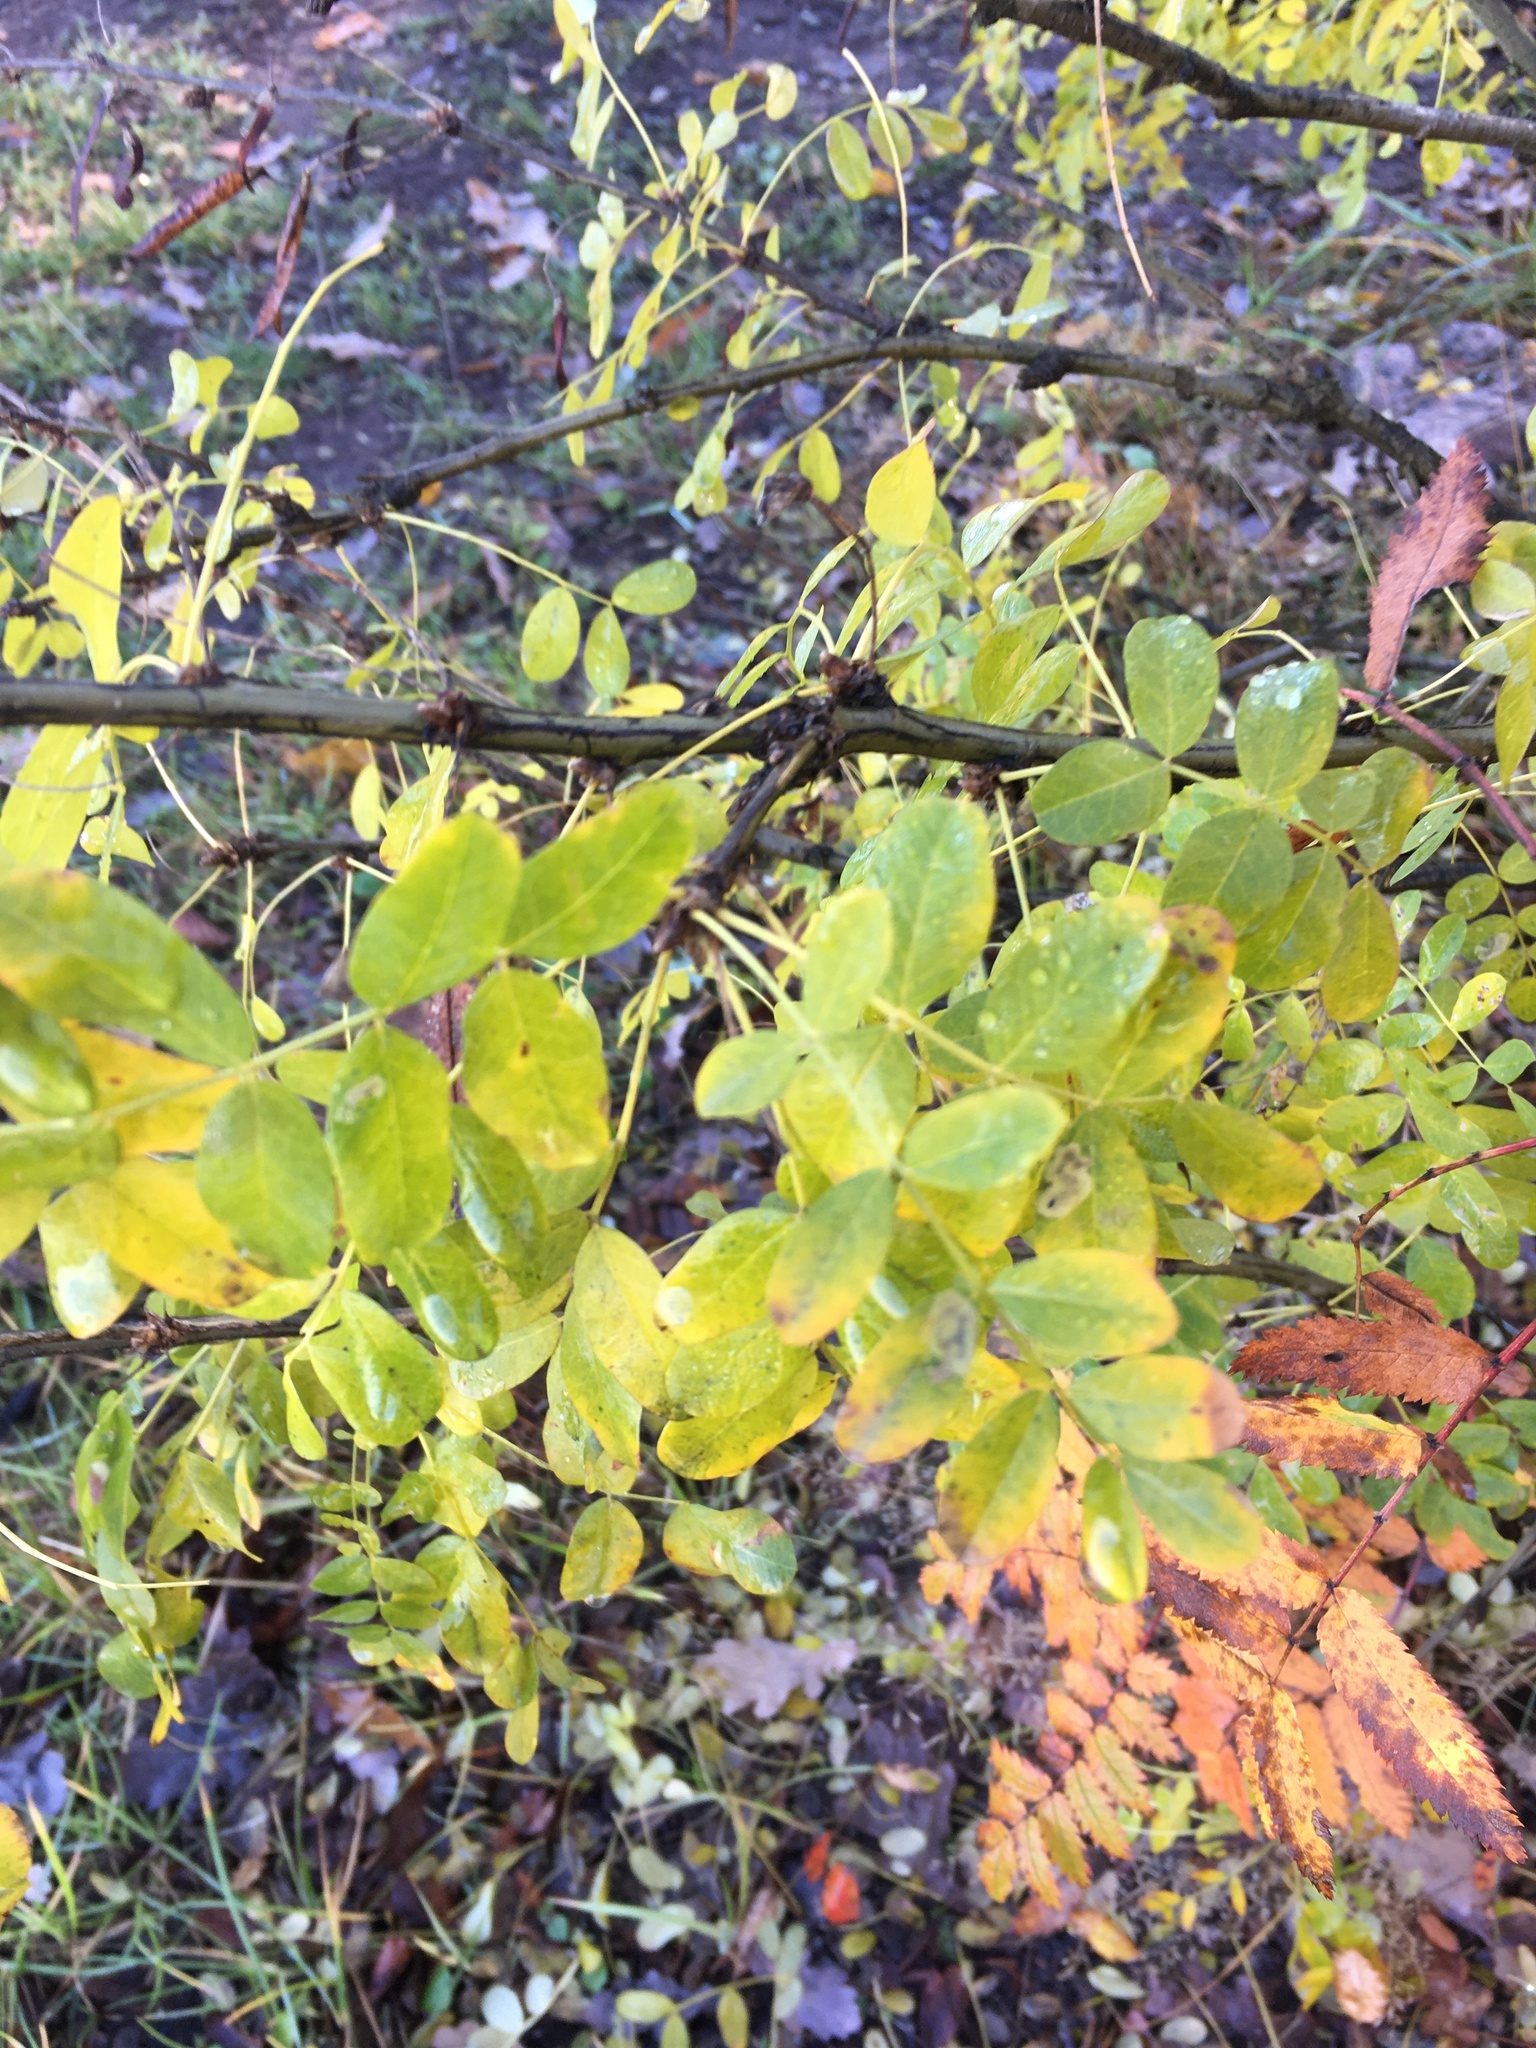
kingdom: Plantae
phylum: Tracheophyta
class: Magnoliopsida
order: Fabales
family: Fabaceae
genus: Caragana
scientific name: Caragana arborescens
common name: Siberian peashrub
